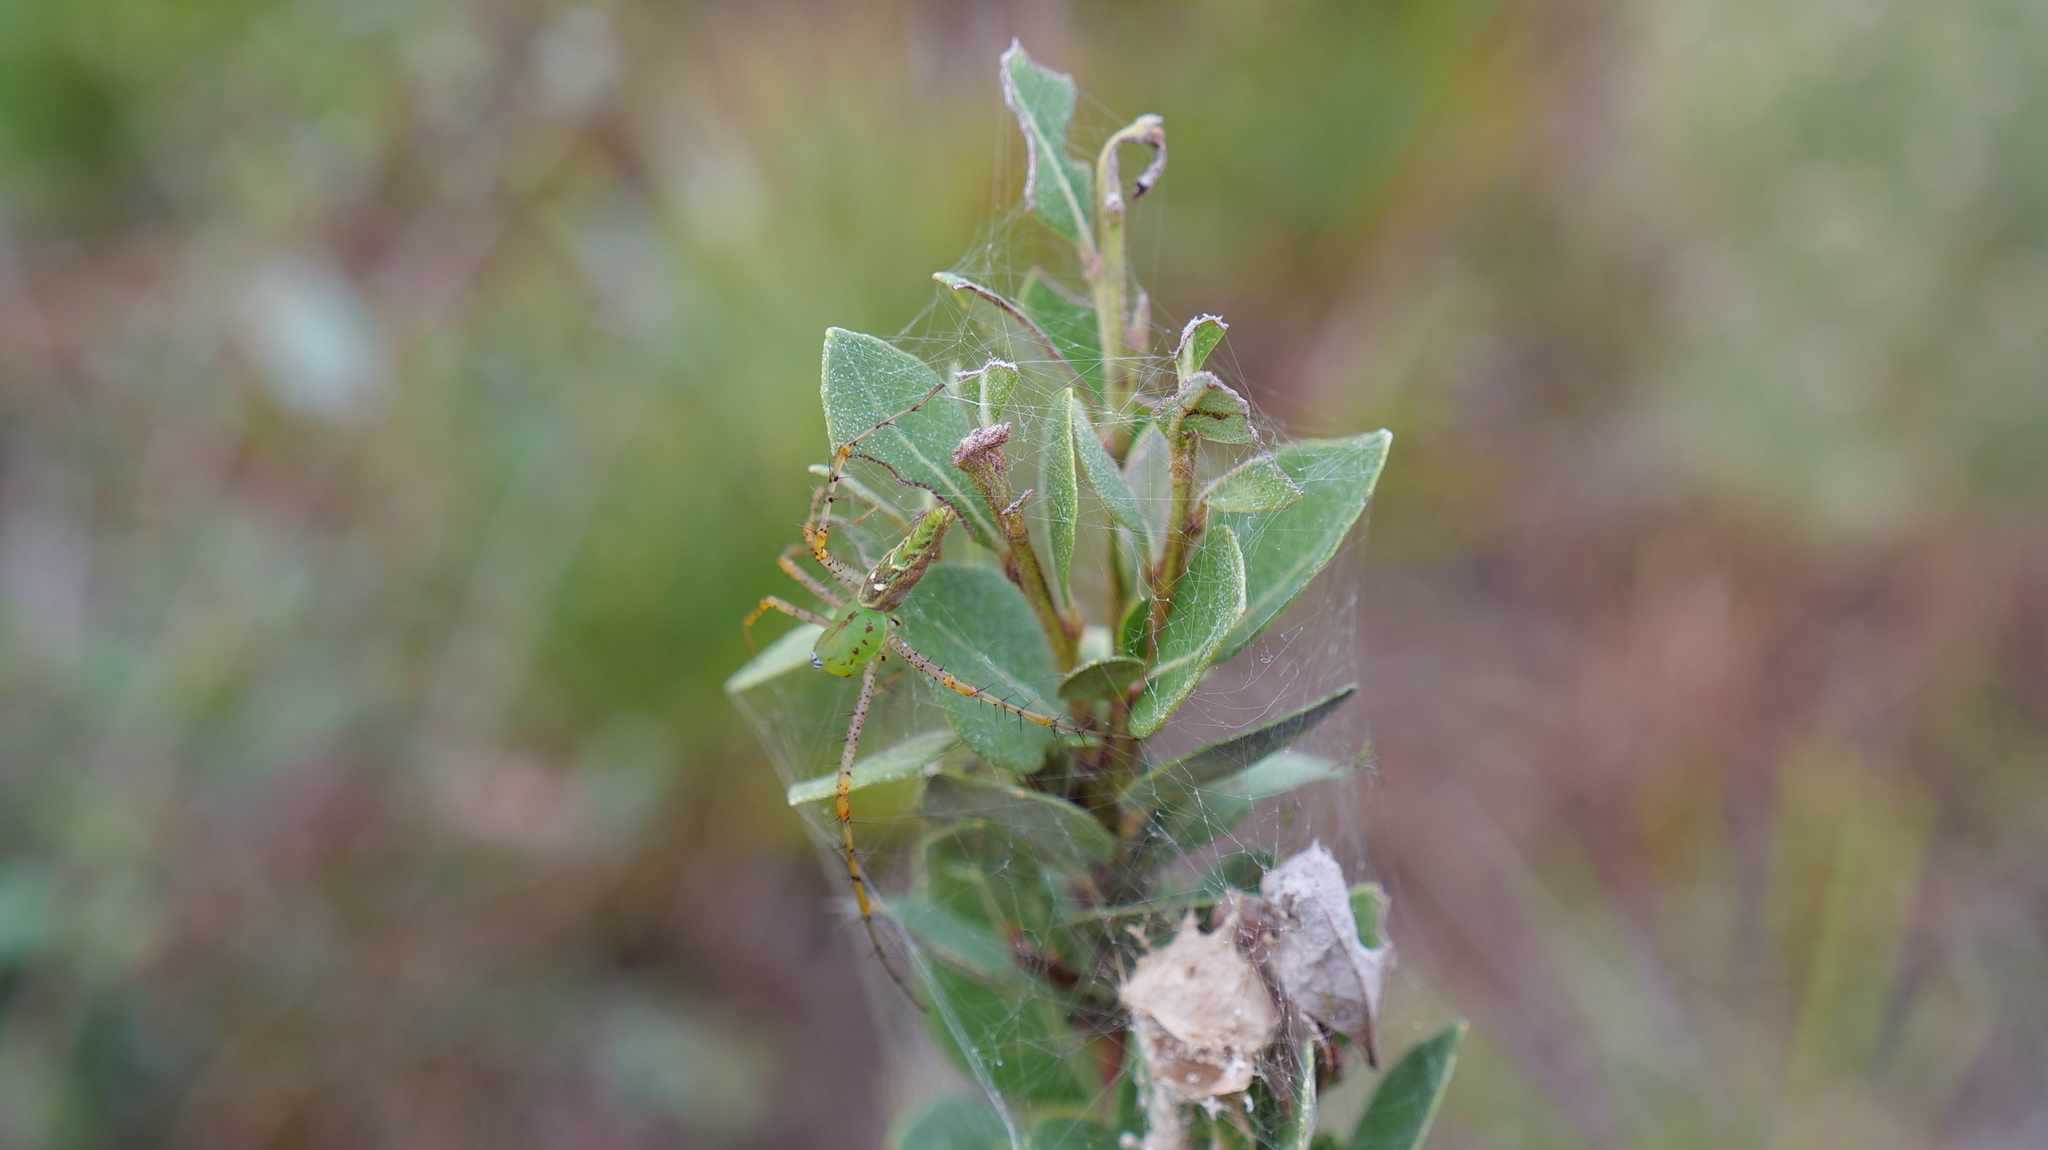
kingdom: Animalia
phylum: Arthropoda
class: Arachnida
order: Araneae
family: Oxyopidae
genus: Peucetia
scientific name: Peucetia viridans
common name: Lynx spiders
